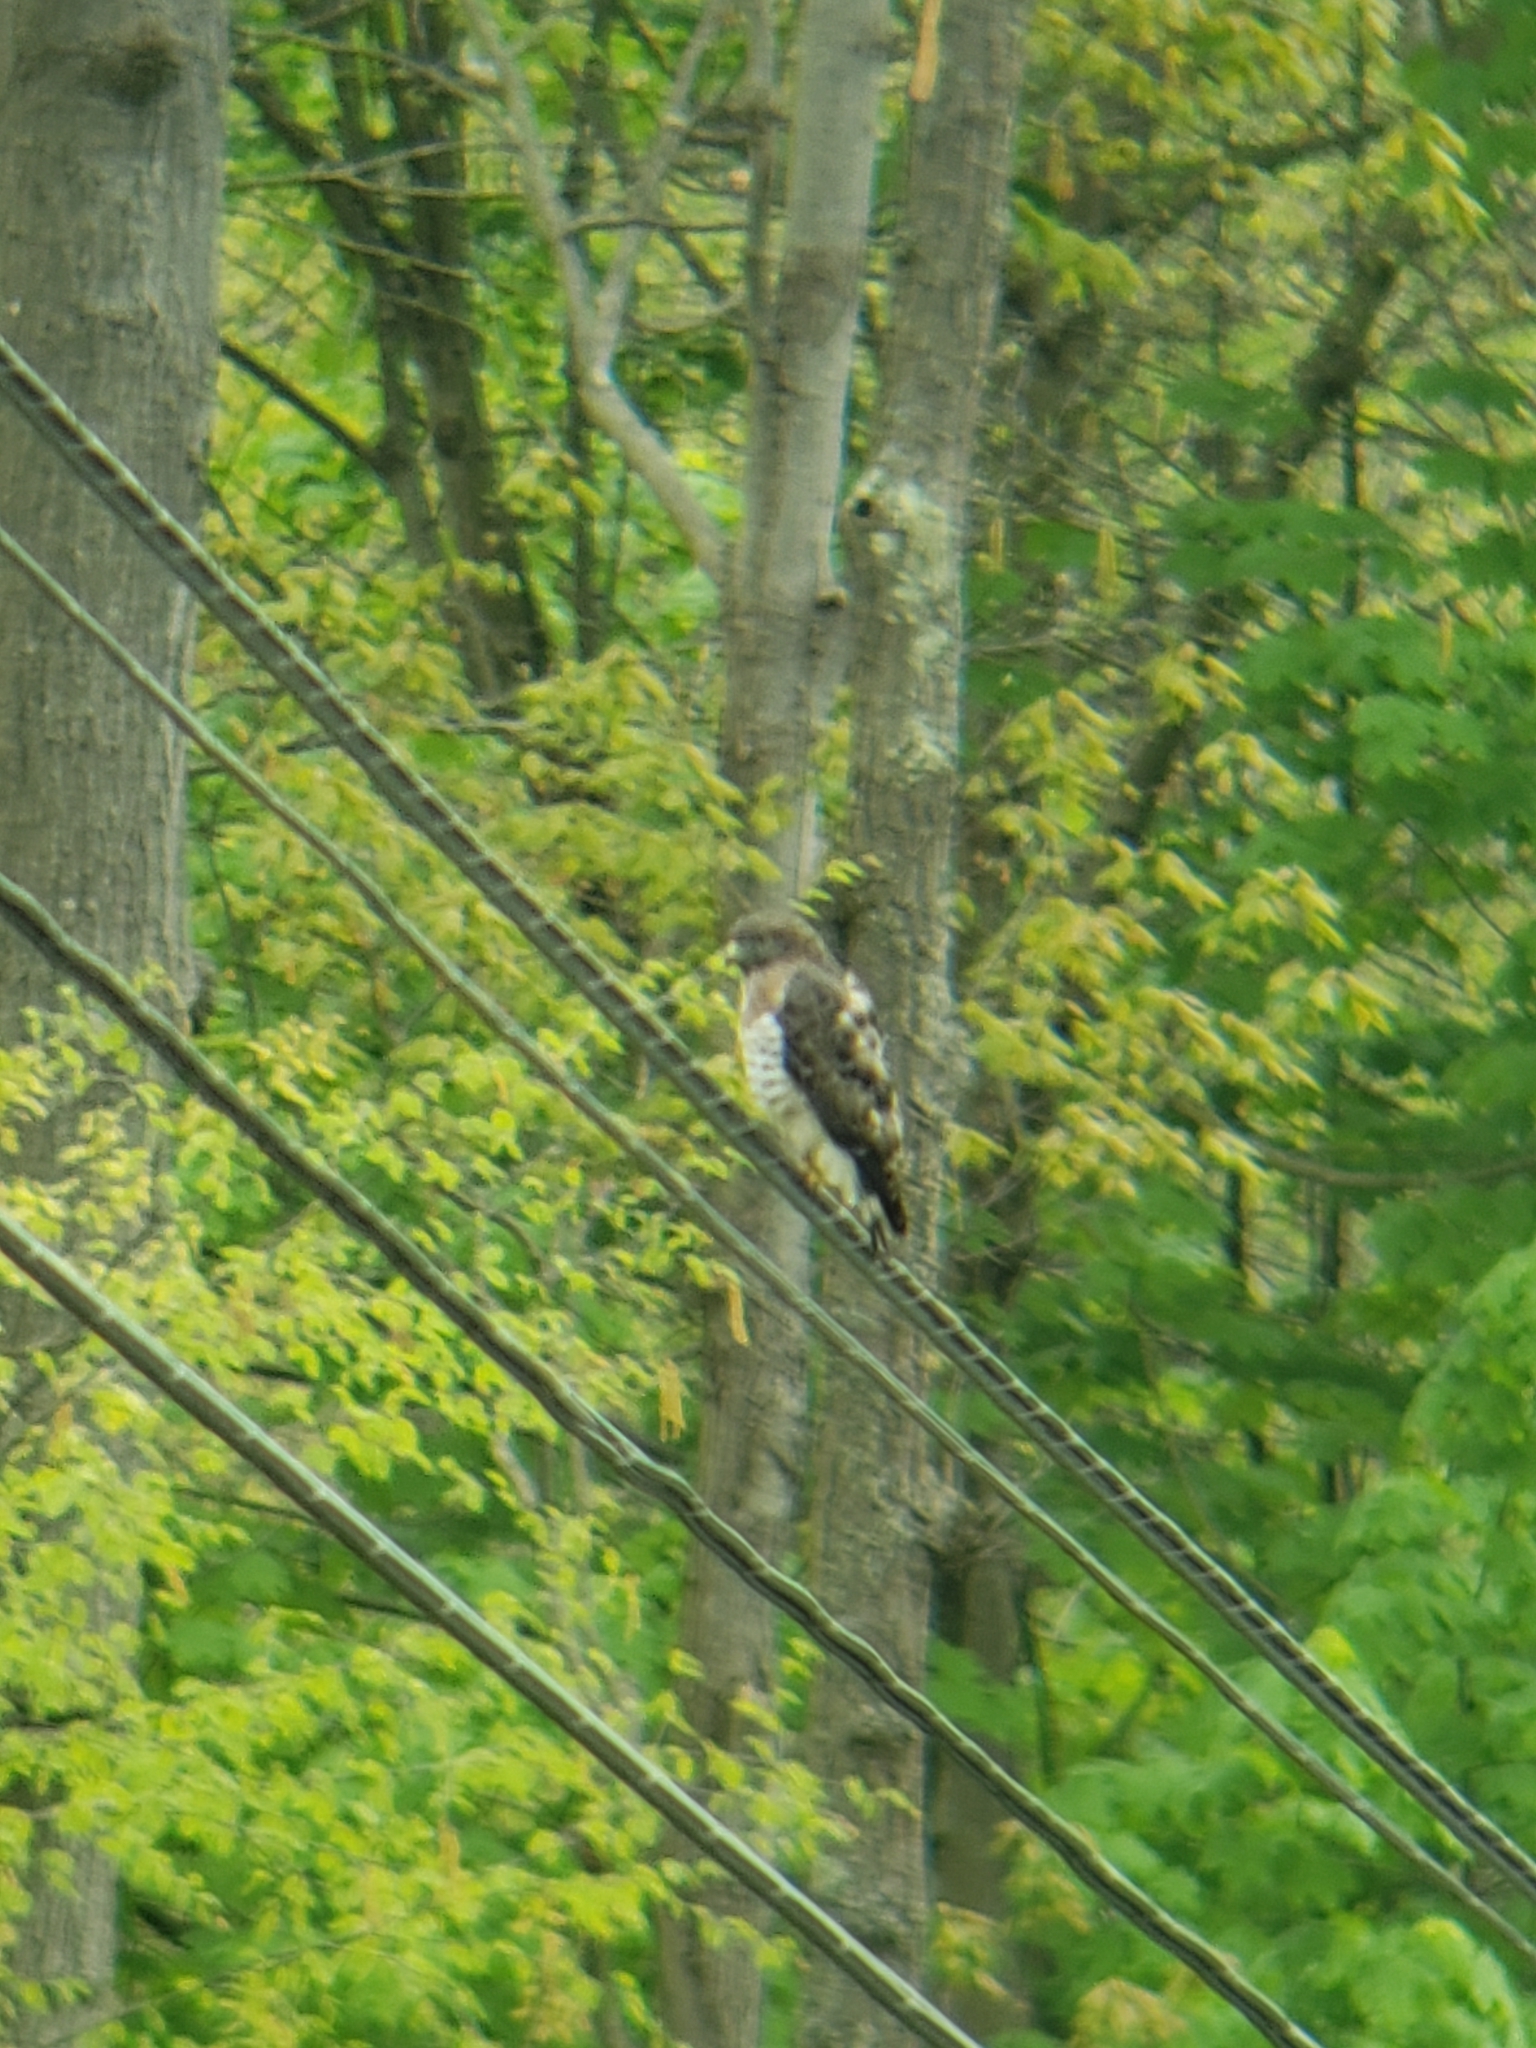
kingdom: Animalia
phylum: Chordata
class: Aves
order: Accipitriformes
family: Accipitridae
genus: Buteo
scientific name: Buteo platypterus
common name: Broad-winged hawk
